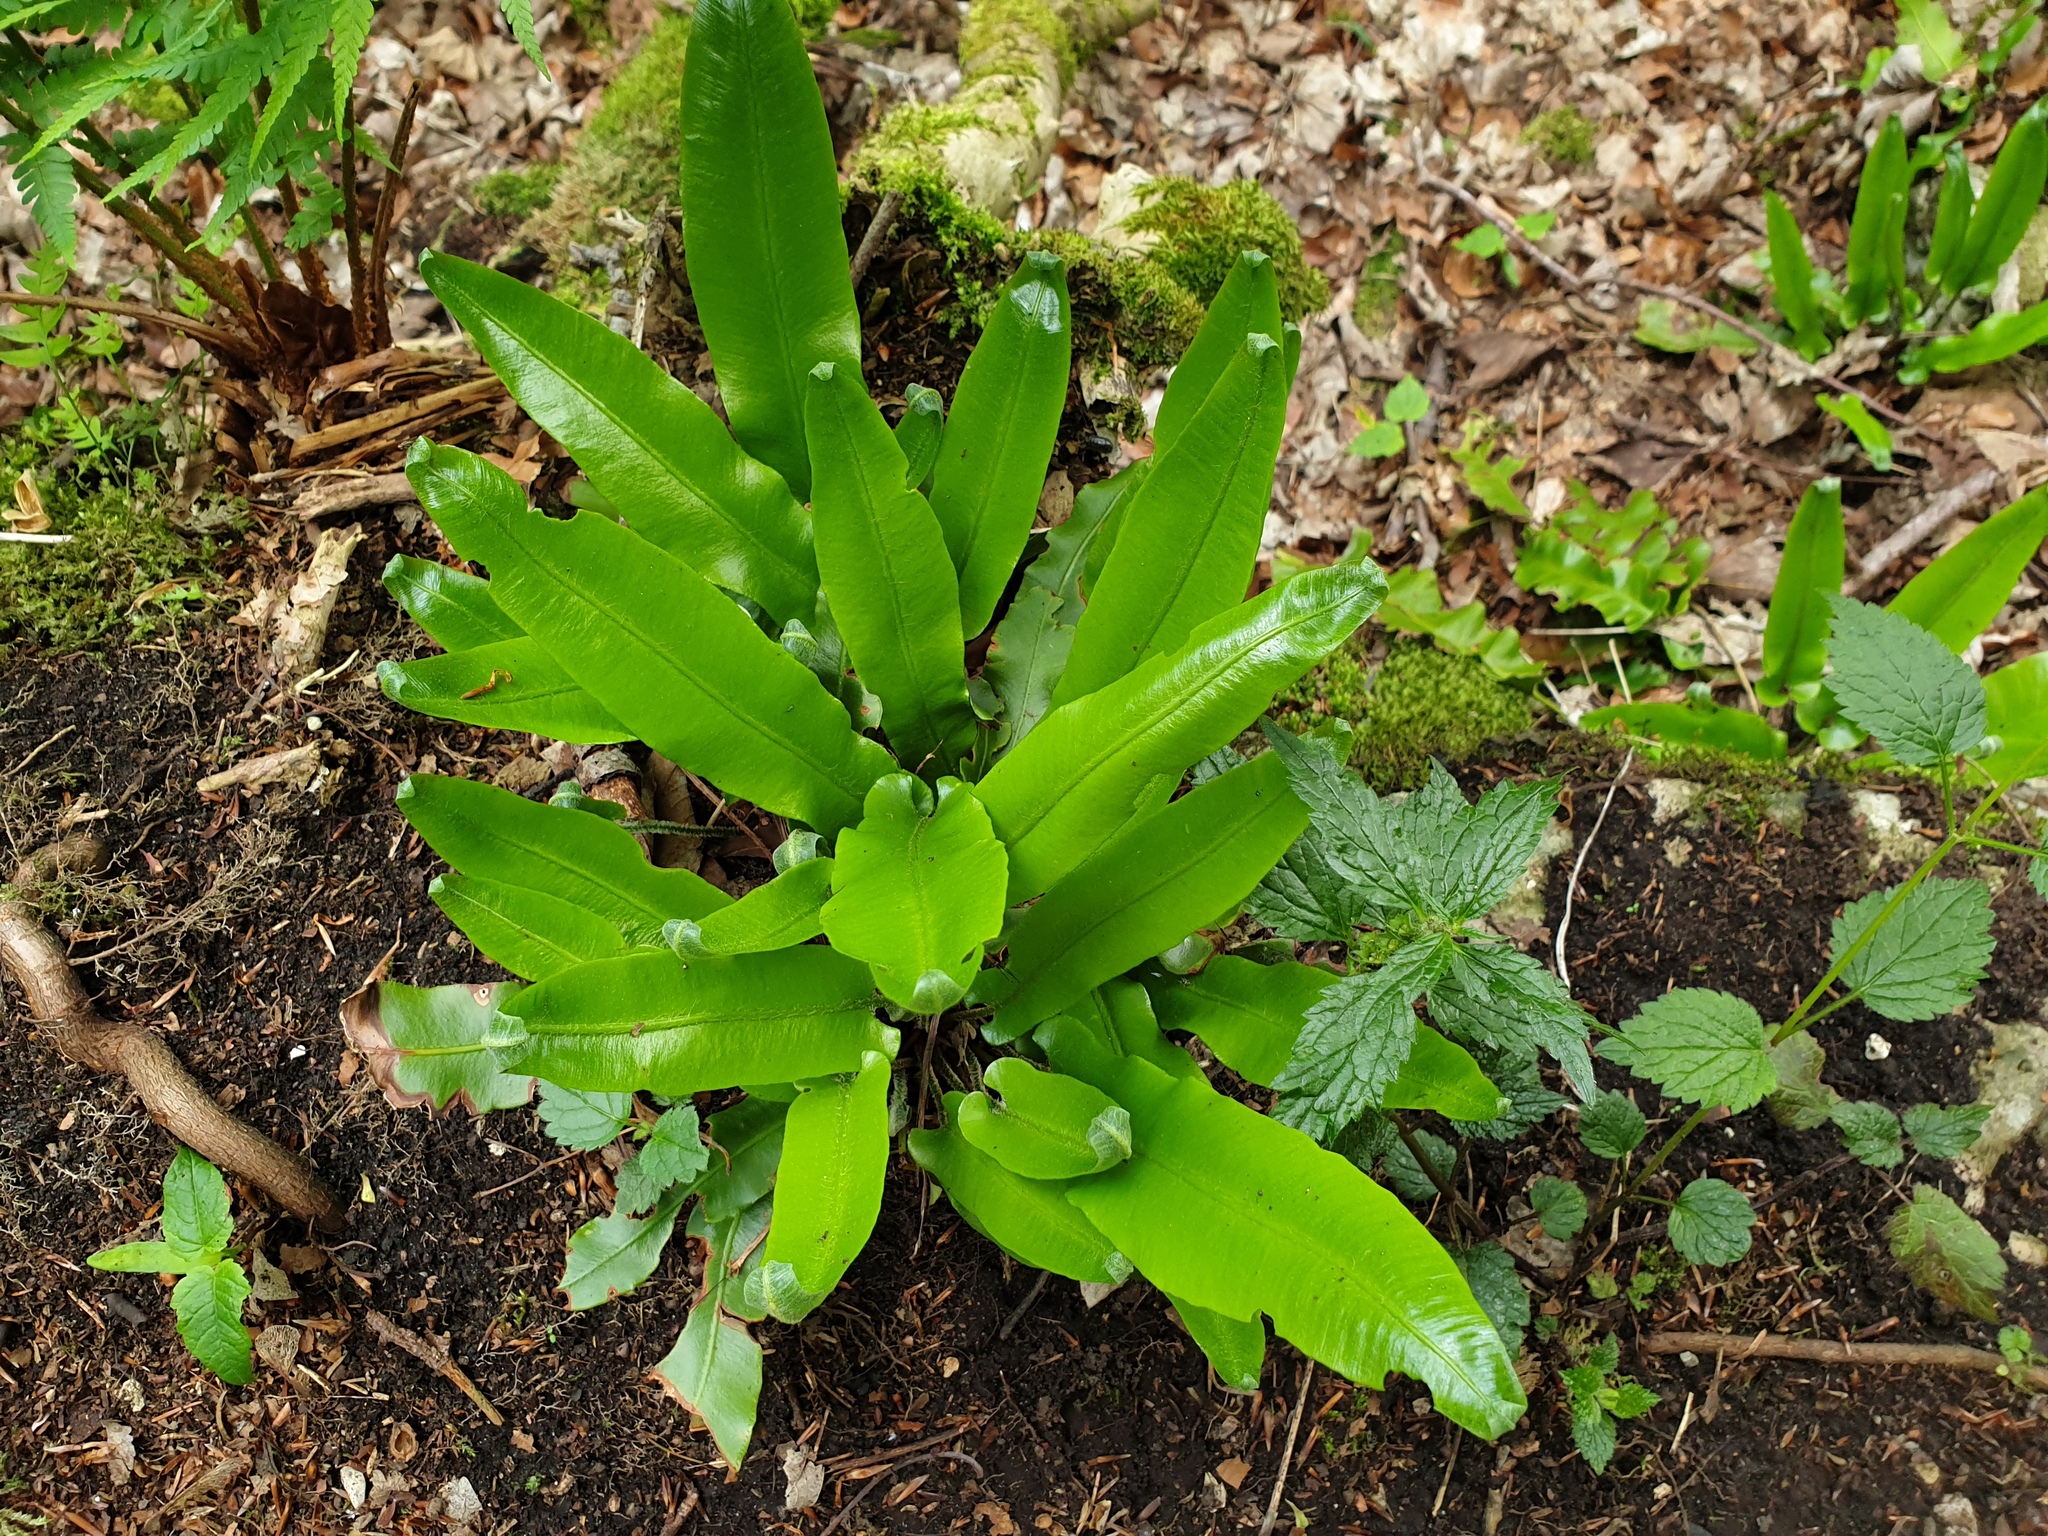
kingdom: Plantae
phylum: Tracheophyta
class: Polypodiopsida
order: Polypodiales
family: Aspleniaceae
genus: Asplenium
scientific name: Asplenium scolopendrium
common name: Hart's-tongue fern
